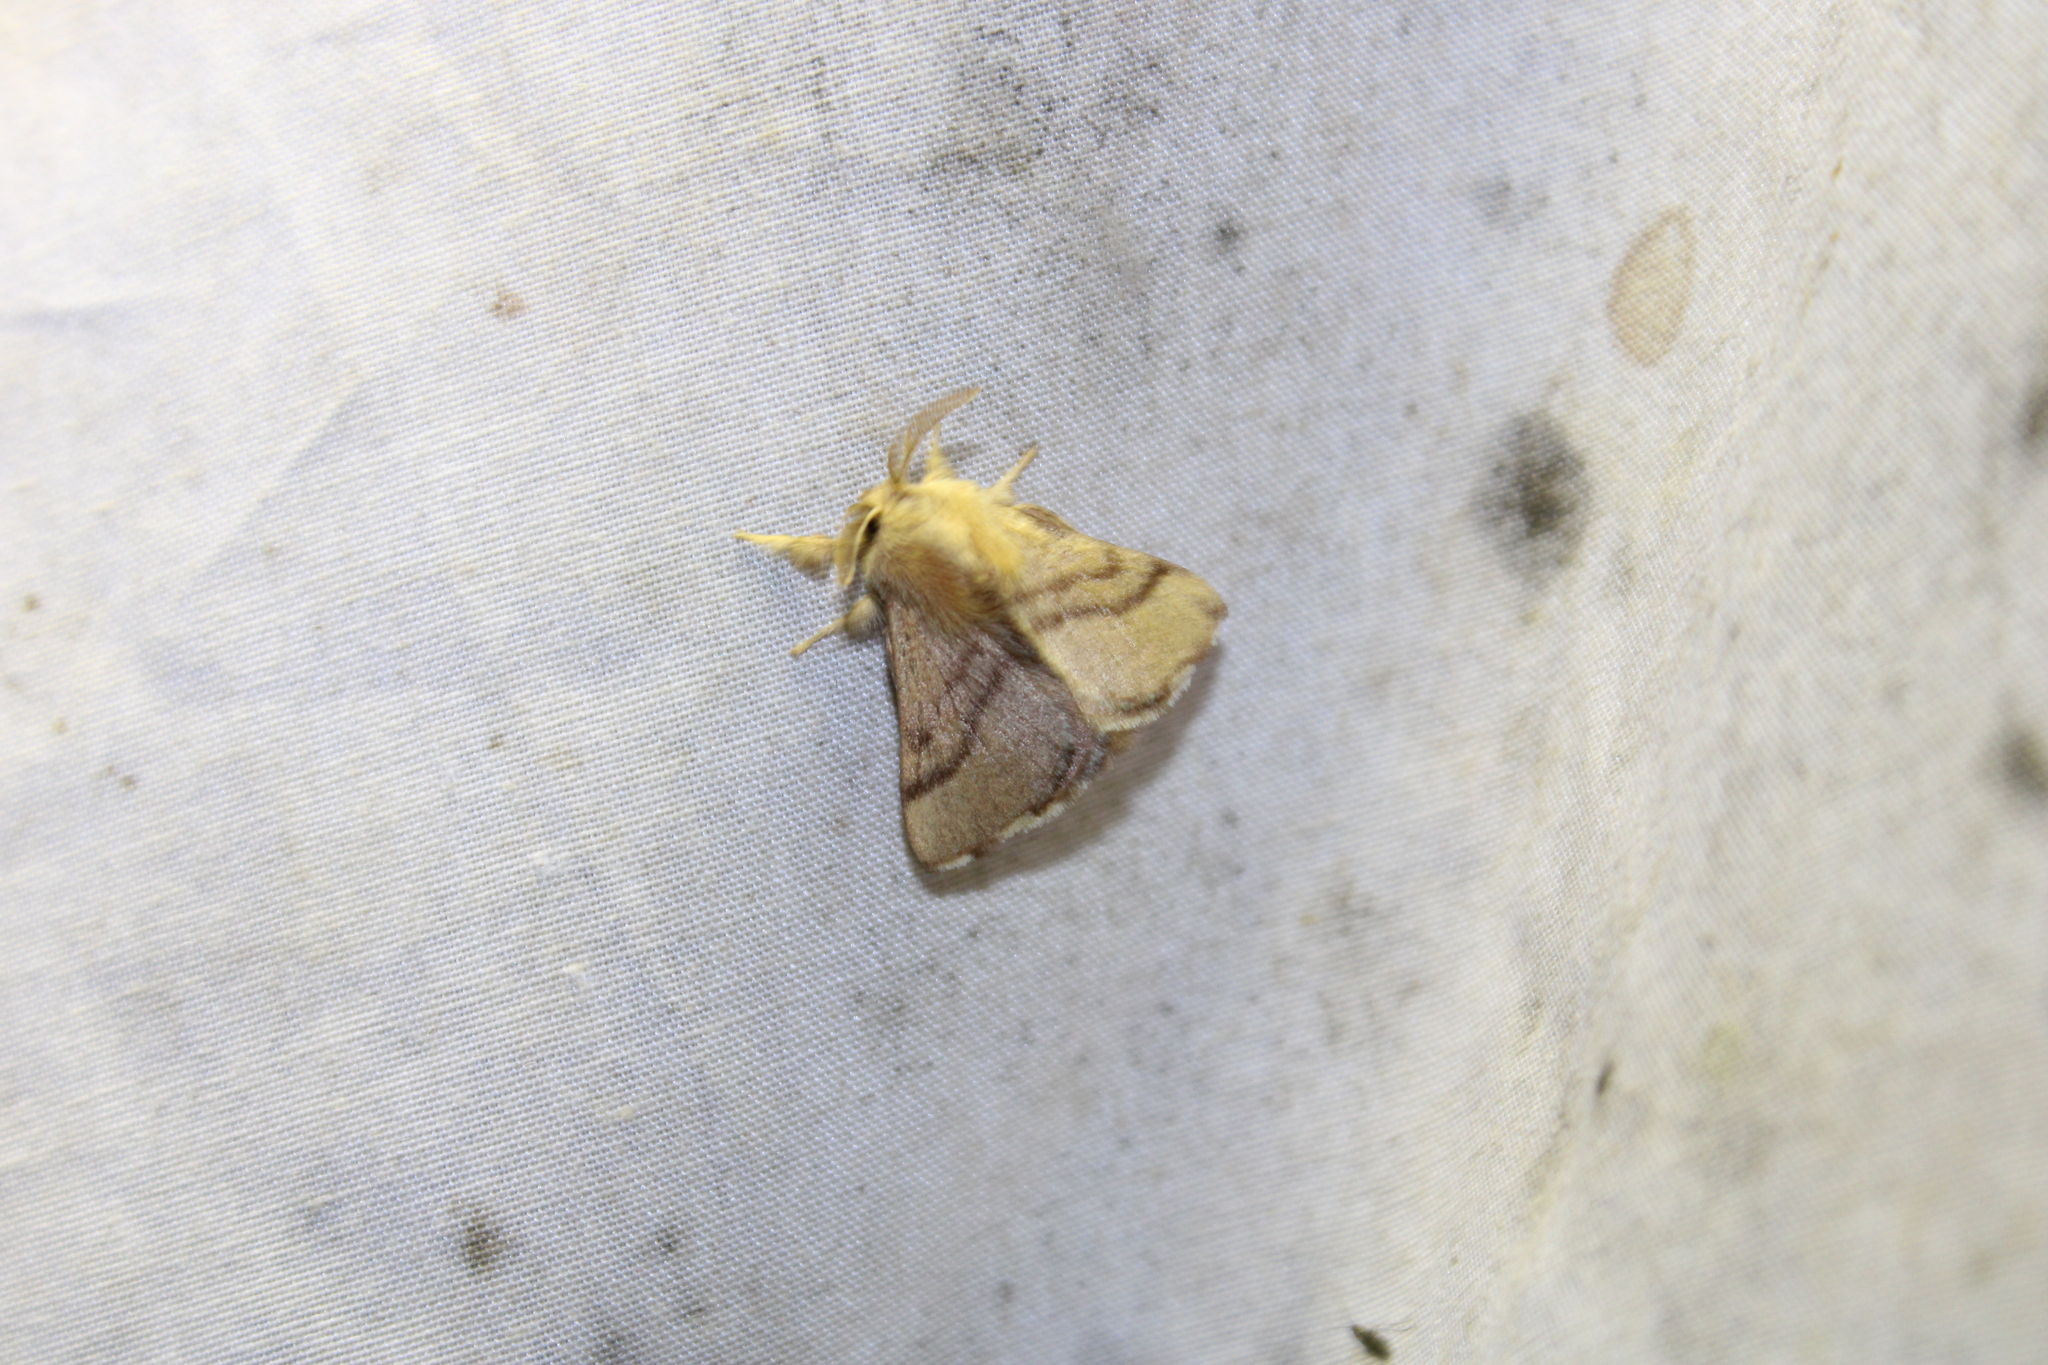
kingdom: Animalia
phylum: Arthropoda
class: Insecta
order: Lepidoptera
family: Lasiocampidae
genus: Malacosoma
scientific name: Malacosoma disstria
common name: Forest tent caterpillar
